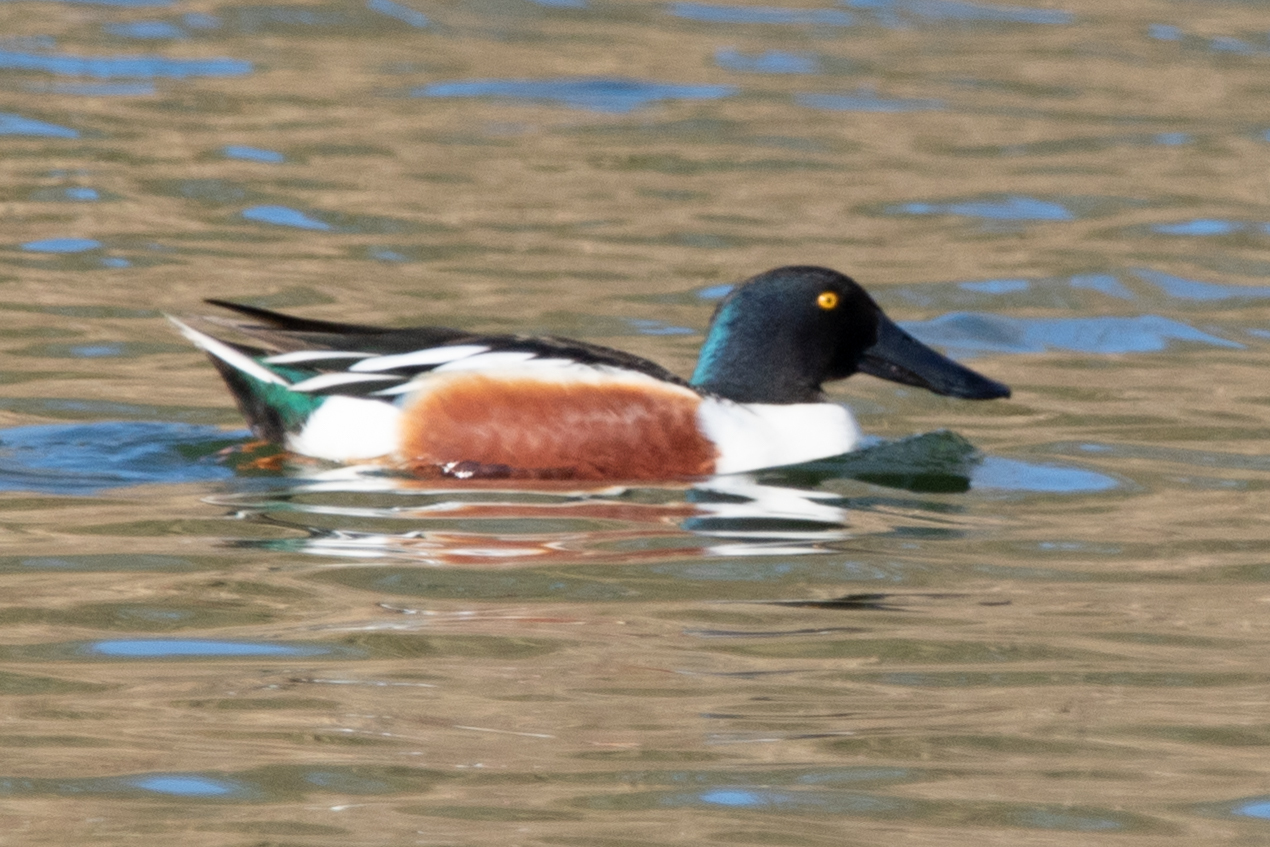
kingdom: Animalia
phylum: Chordata
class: Aves
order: Anseriformes
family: Anatidae
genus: Spatula
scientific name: Spatula clypeata
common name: Northern shoveler
